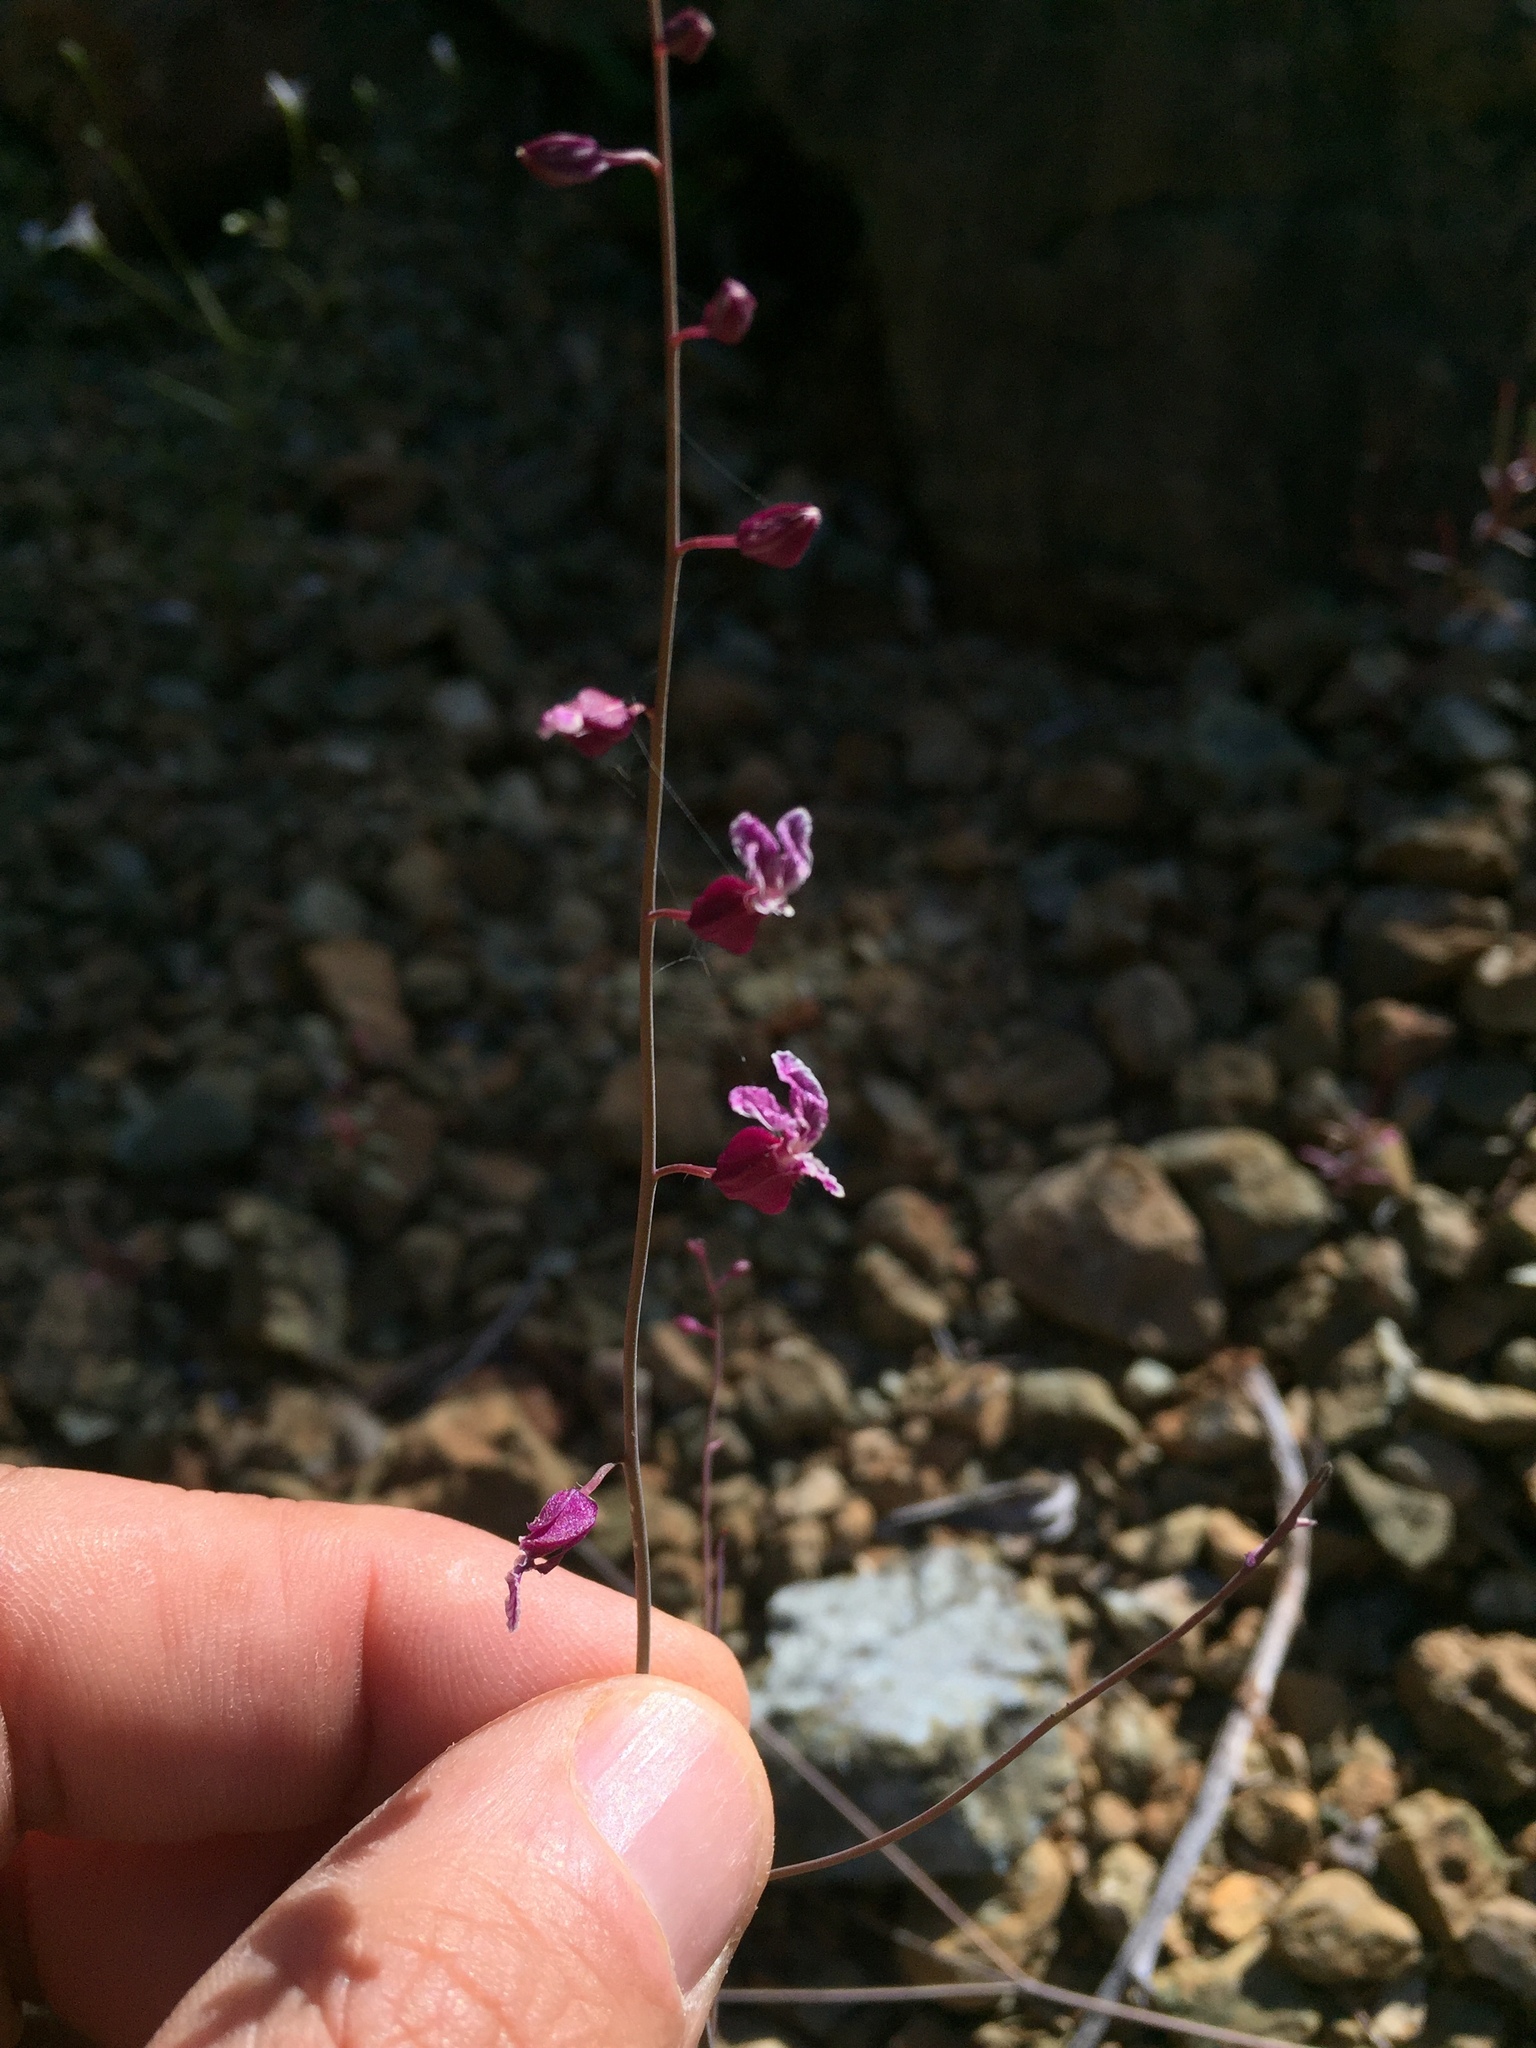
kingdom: Plantae
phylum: Tracheophyta
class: Magnoliopsida
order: Brassicales
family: Brassicaceae
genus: Streptanthus
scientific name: Streptanthus glandulosus
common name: Jewel-flower
